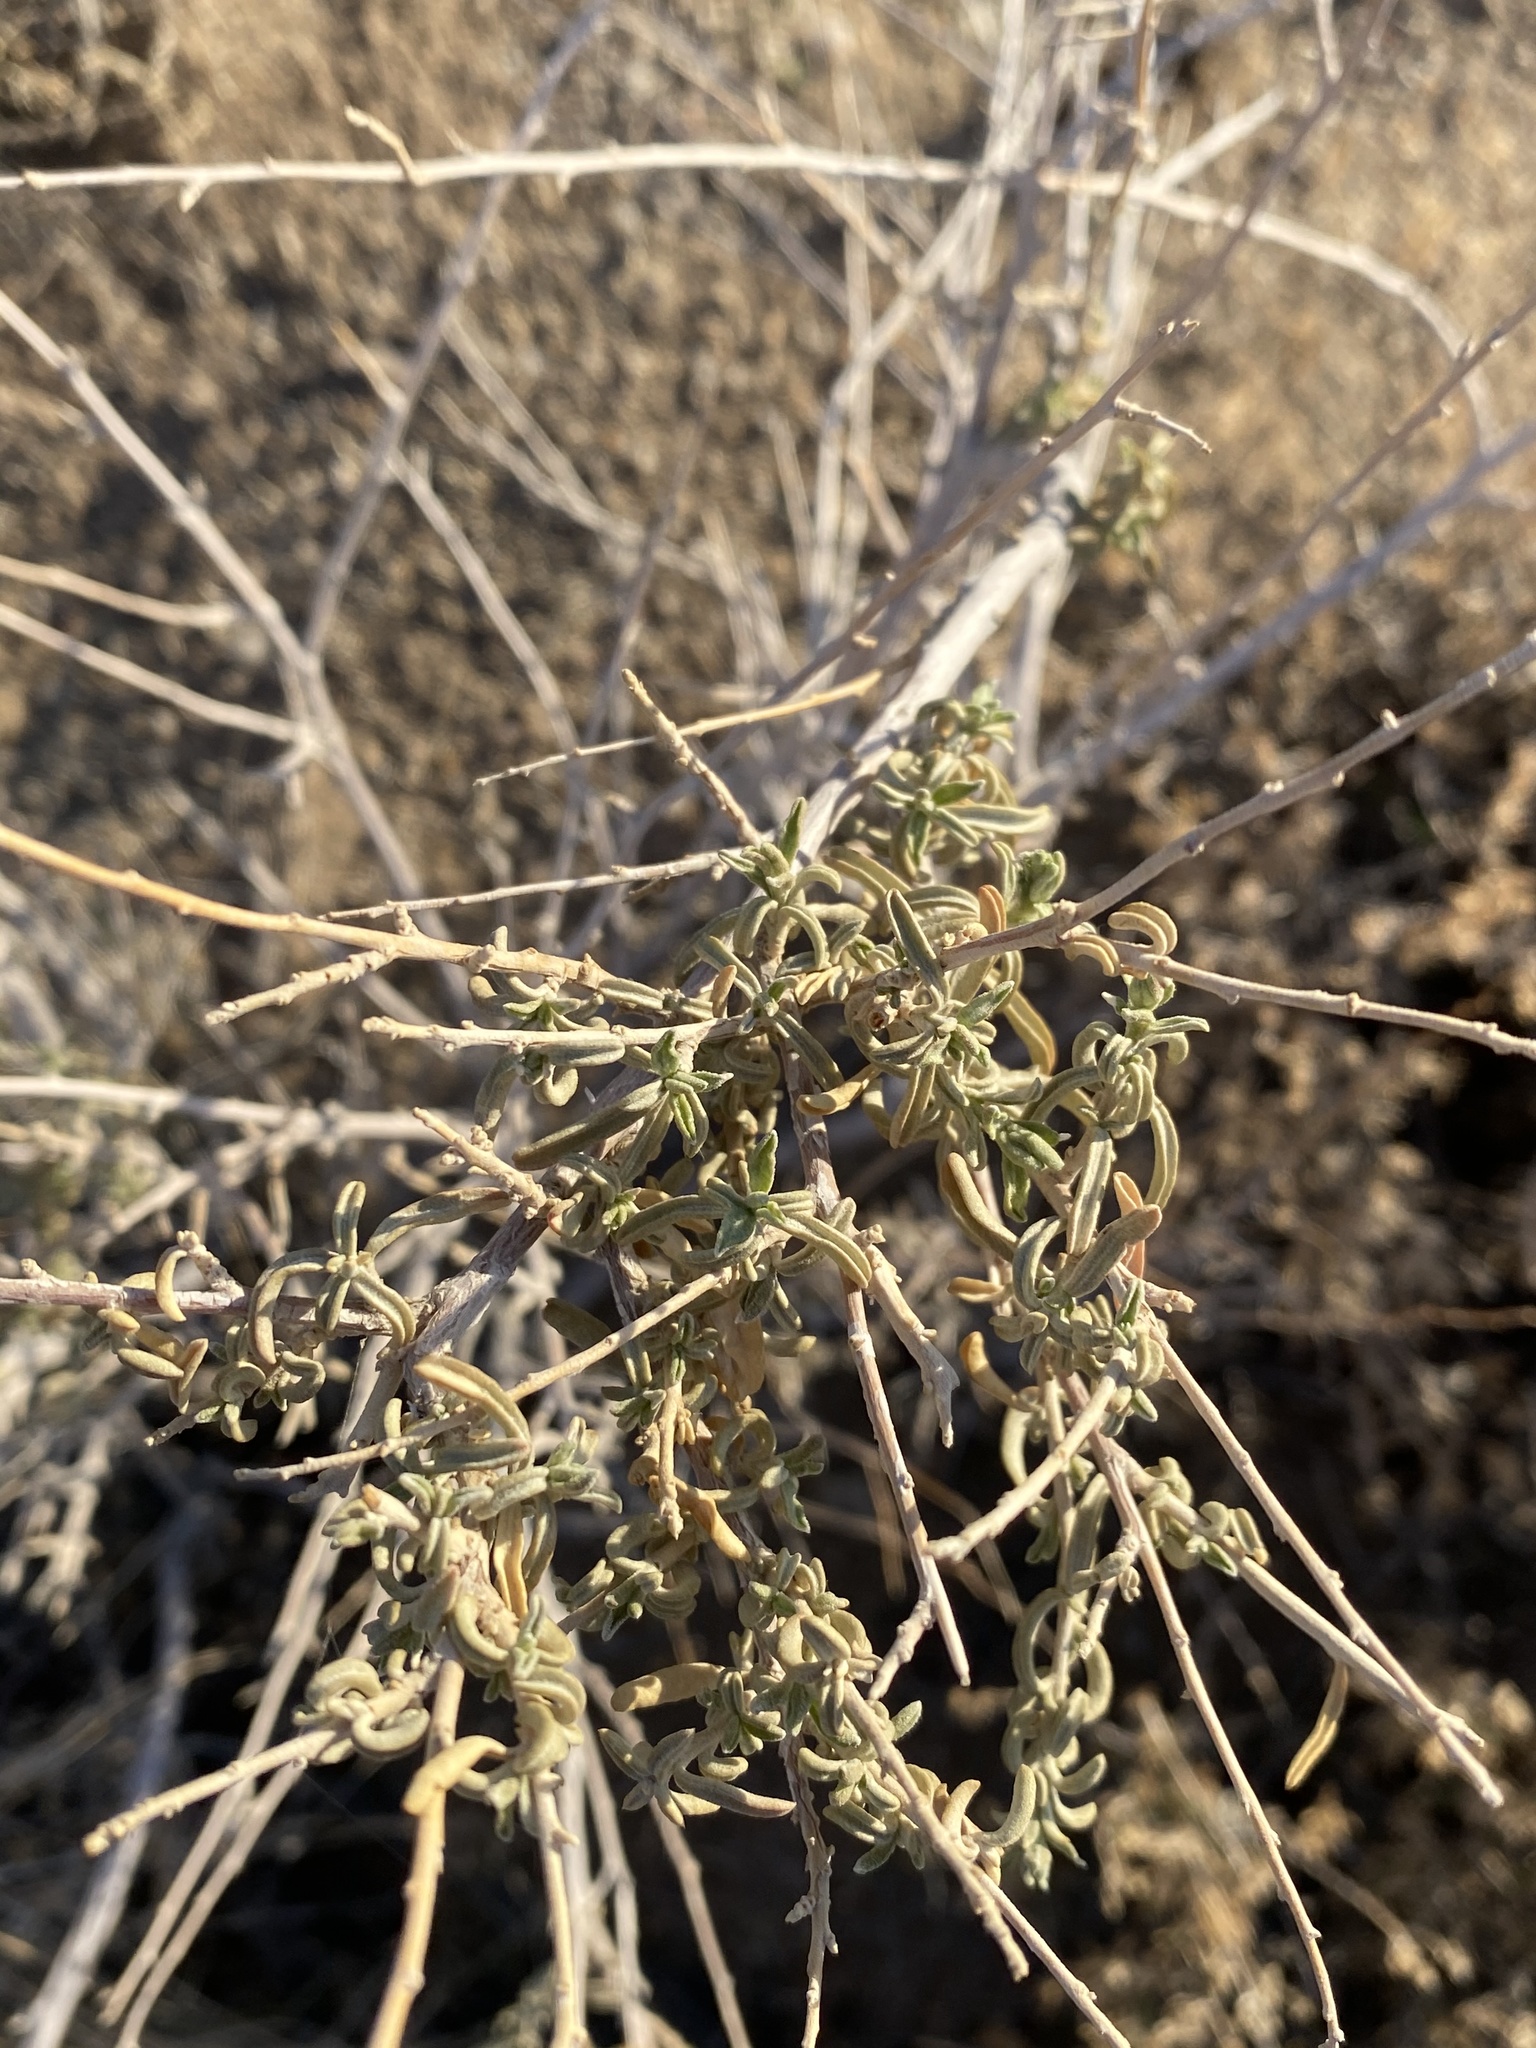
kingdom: Plantae
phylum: Tracheophyta
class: Magnoliopsida
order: Caryophyllales
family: Amaranthaceae
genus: Atriplex
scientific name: Atriplex canescens
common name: Four-wing saltbush
